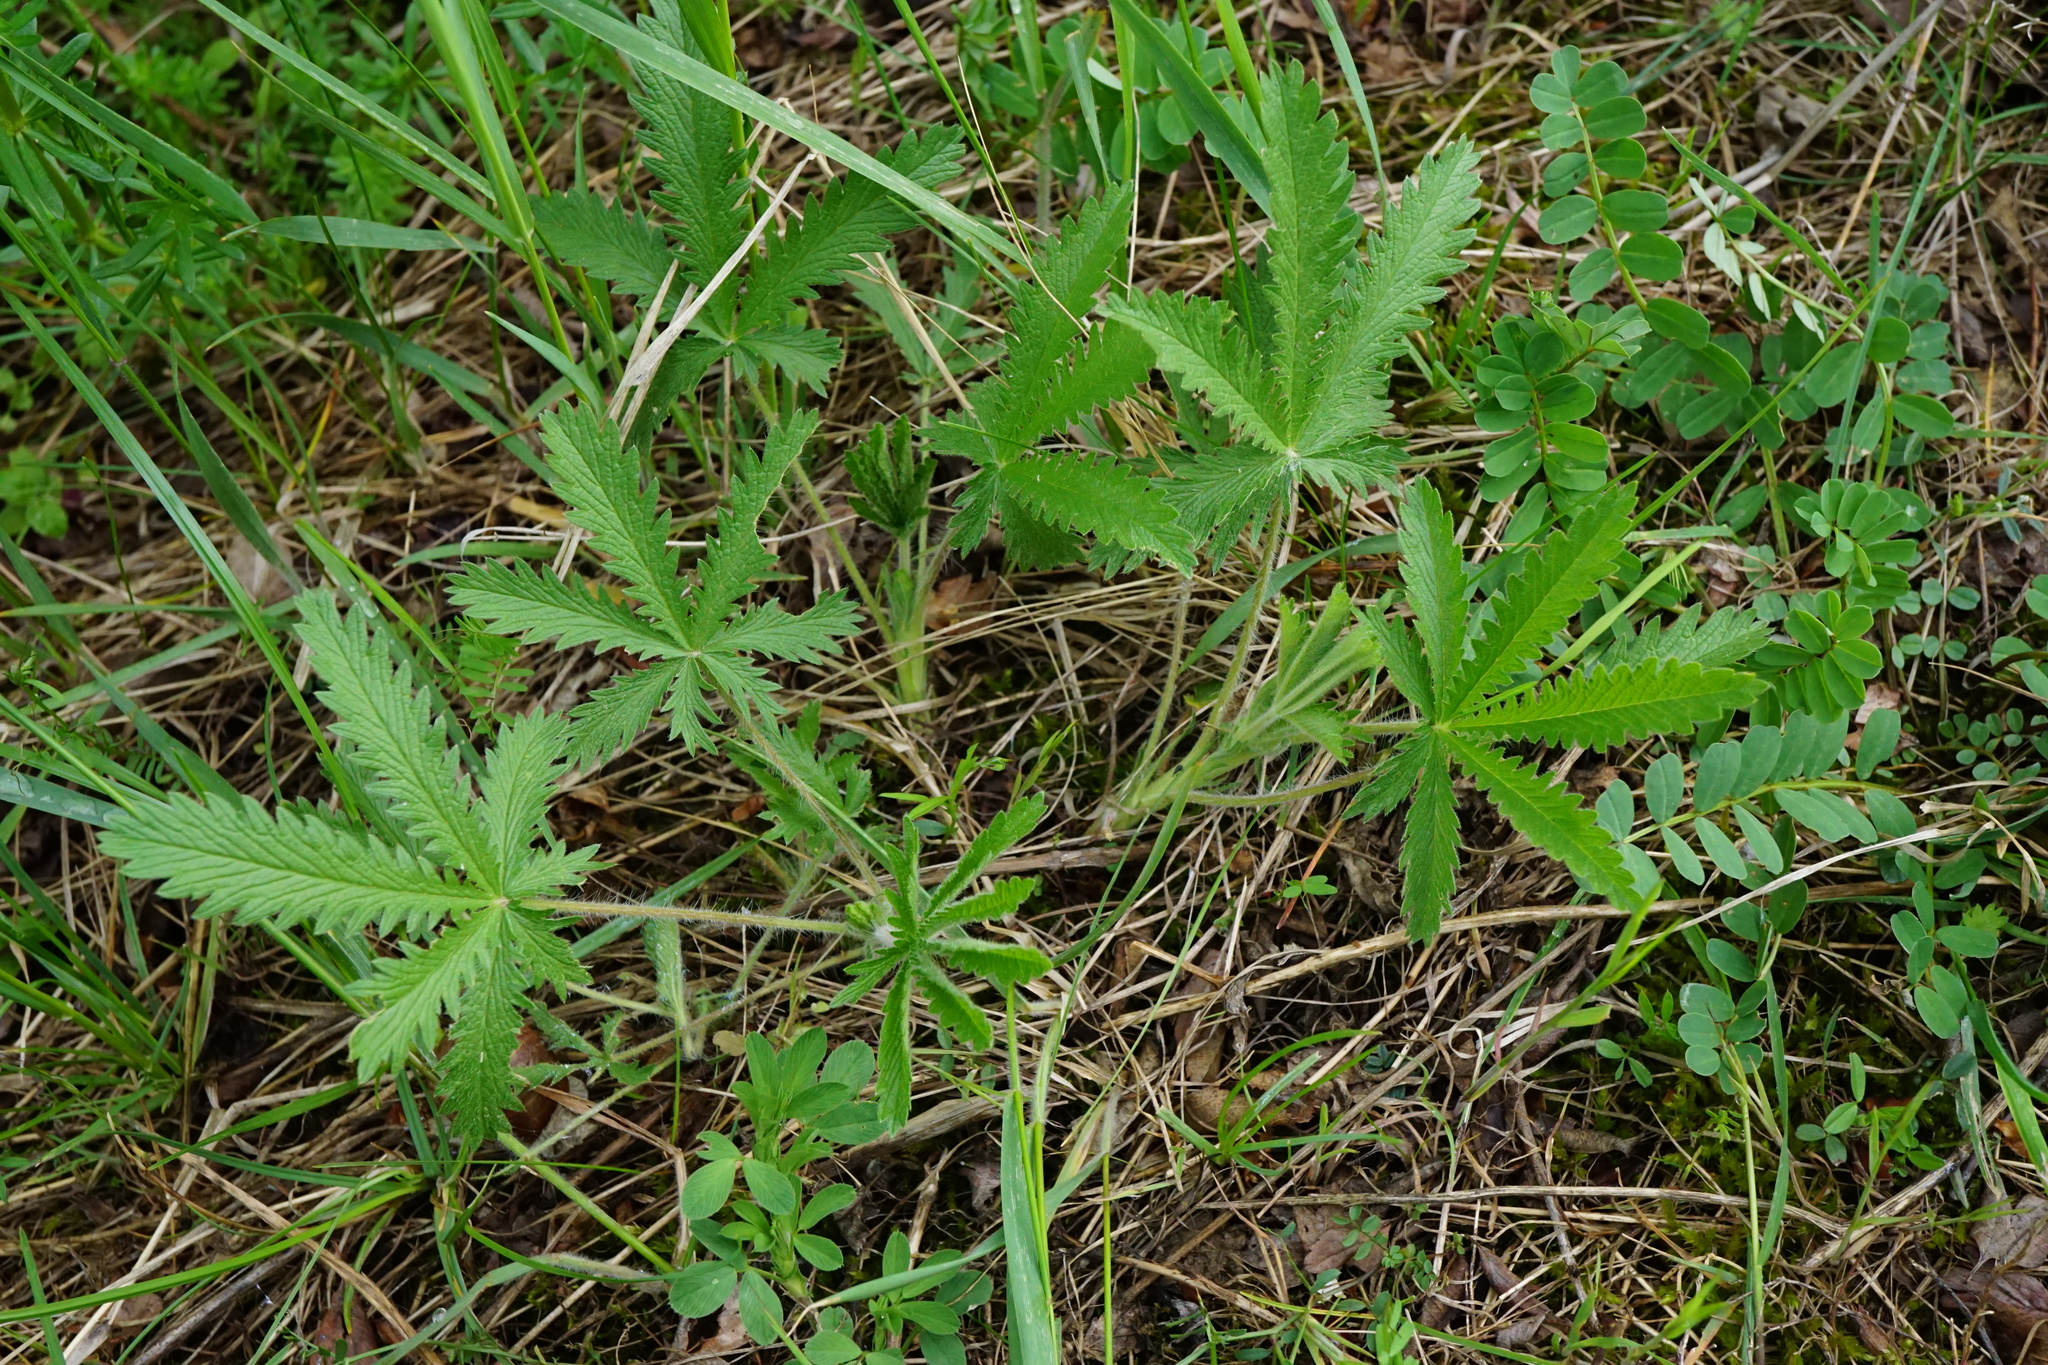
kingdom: Plantae
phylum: Tracheophyta
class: Magnoliopsida
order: Rosales
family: Rosaceae
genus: Potentilla
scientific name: Potentilla recta
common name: Sulphur cinquefoil
